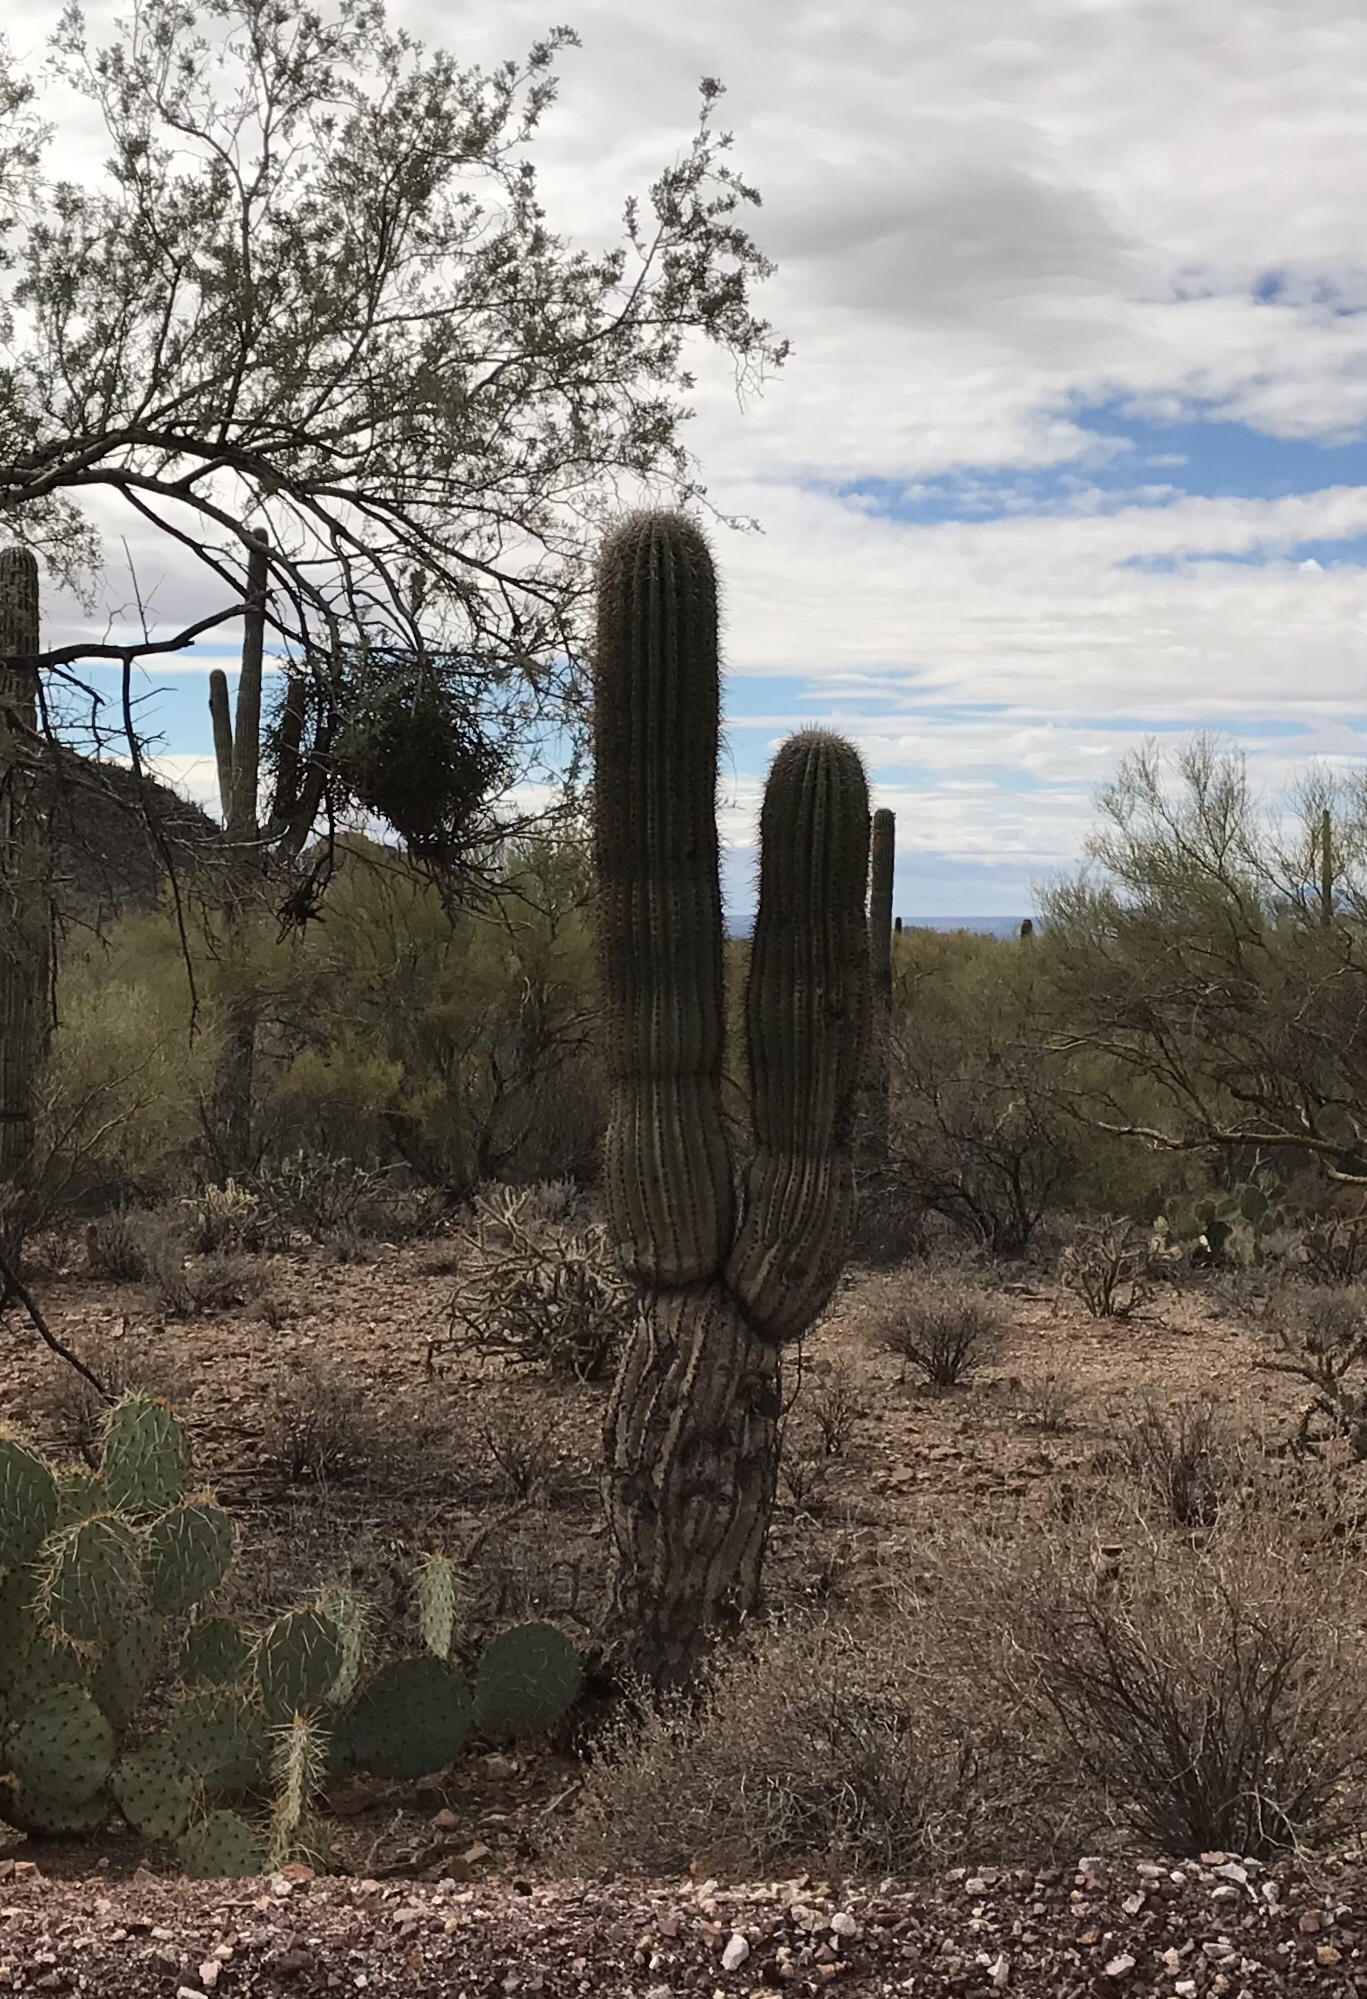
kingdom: Plantae
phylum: Tracheophyta
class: Magnoliopsida
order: Caryophyllales
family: Cactaceae
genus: Carnegiea
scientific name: Carnegiea gigantea
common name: Saguaro
